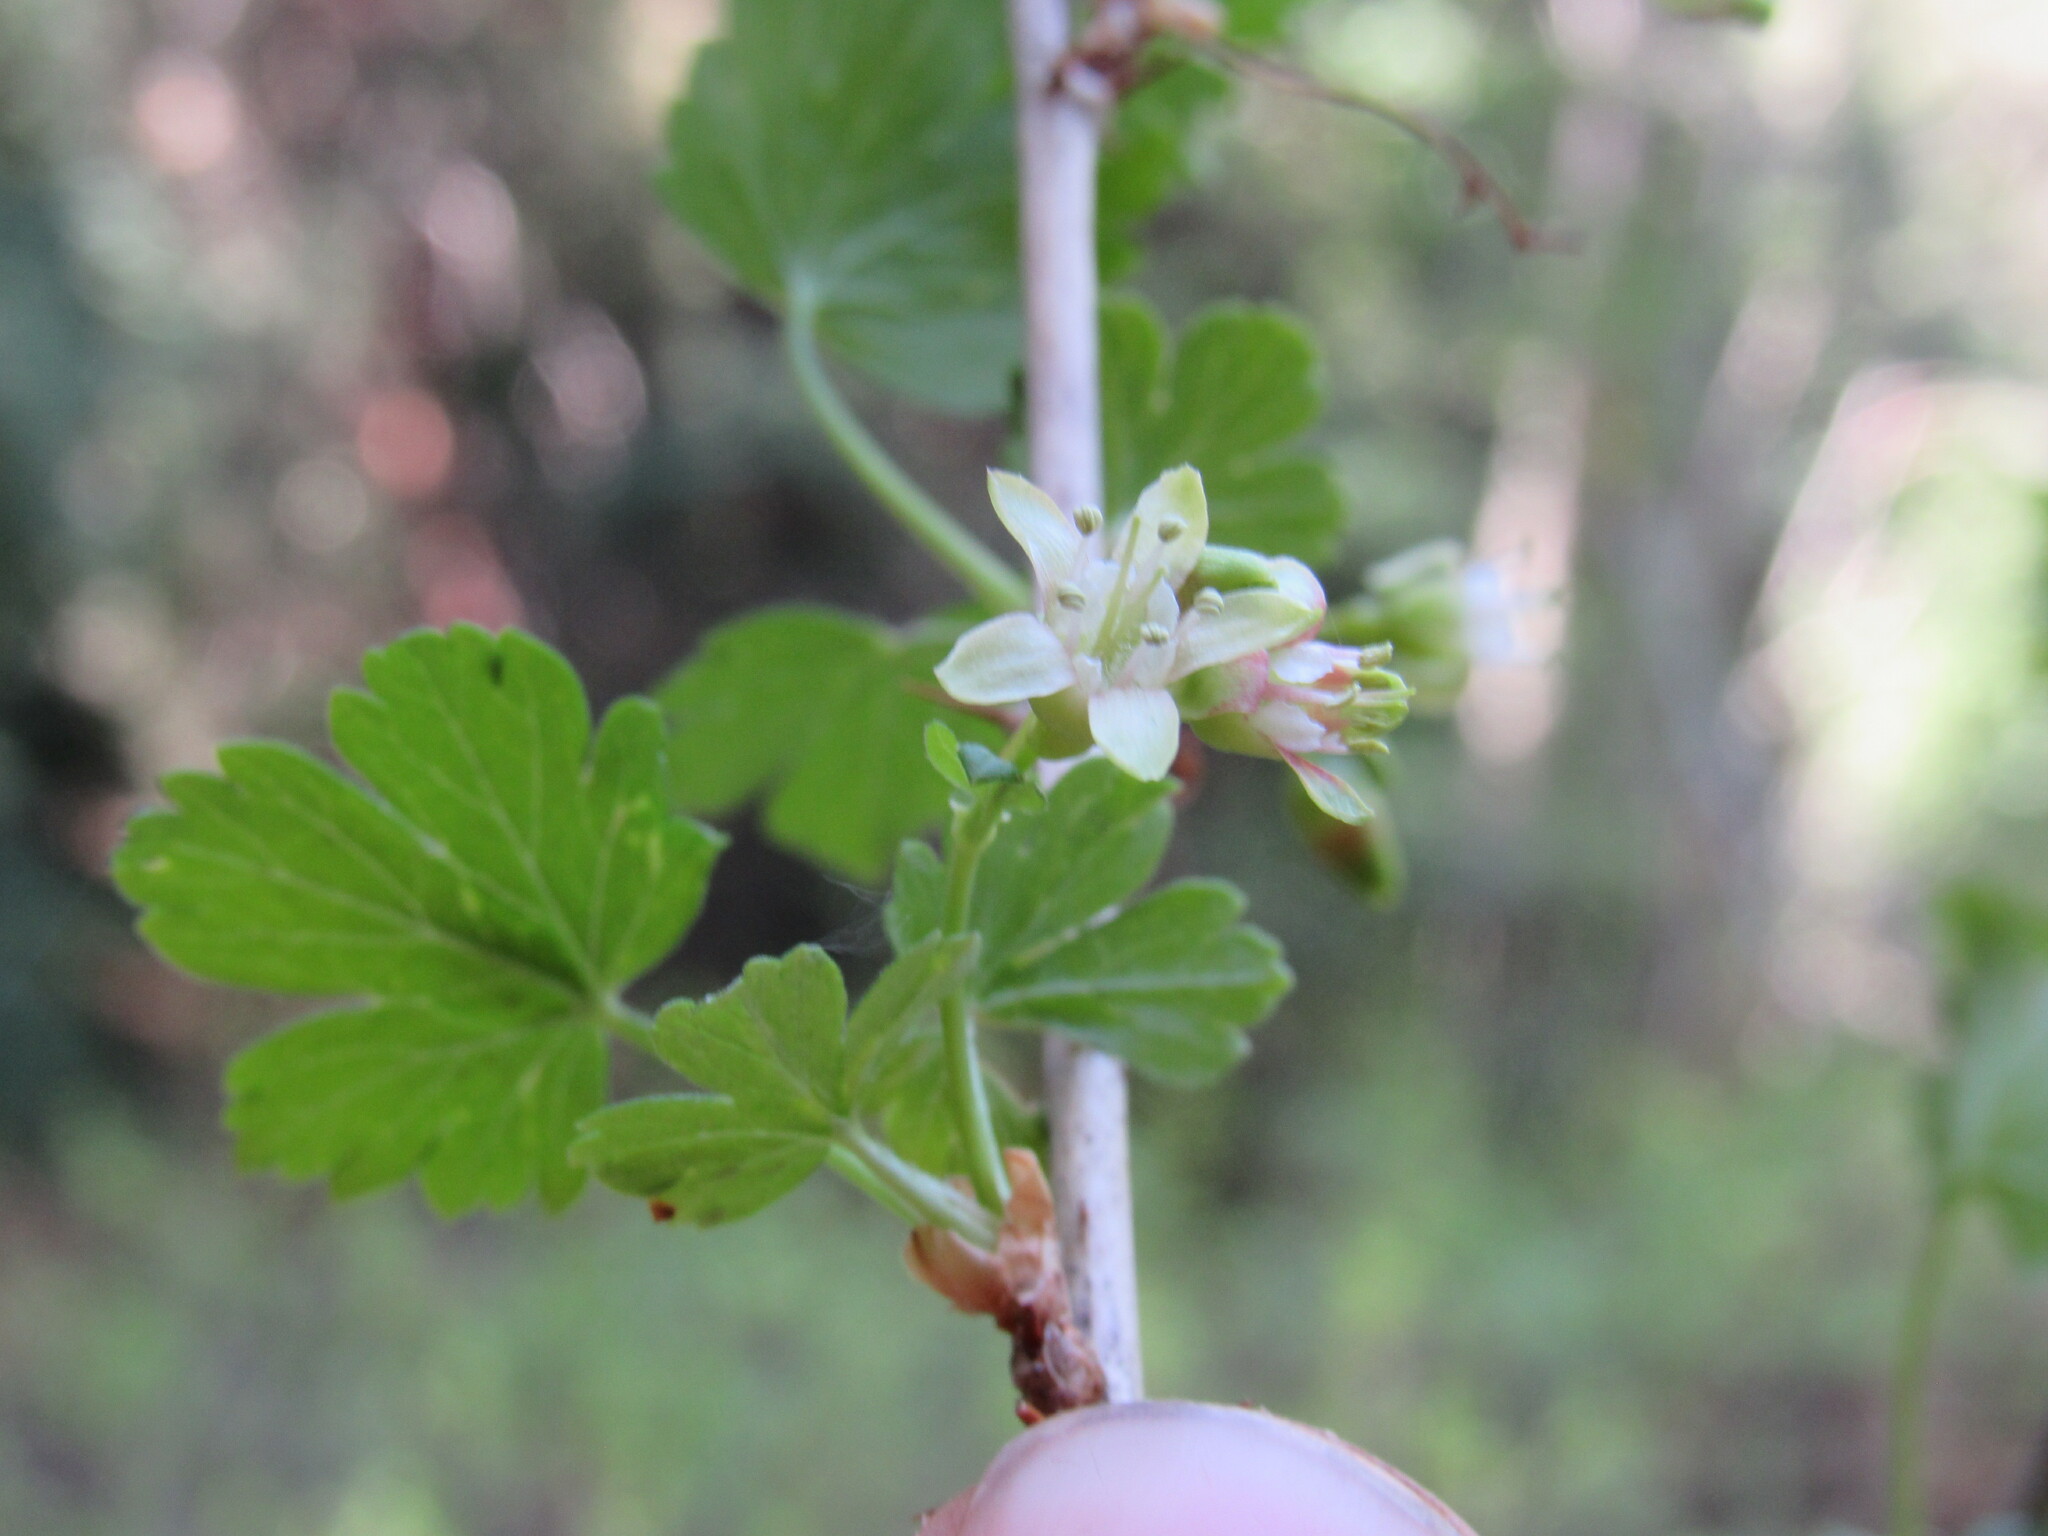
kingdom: Plantae
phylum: Tracheophyta
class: Magnoliopsida
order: Saxifragales
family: Grossulariaceae
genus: Ribes
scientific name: Ribes inerme
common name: White-stem gooseberry
